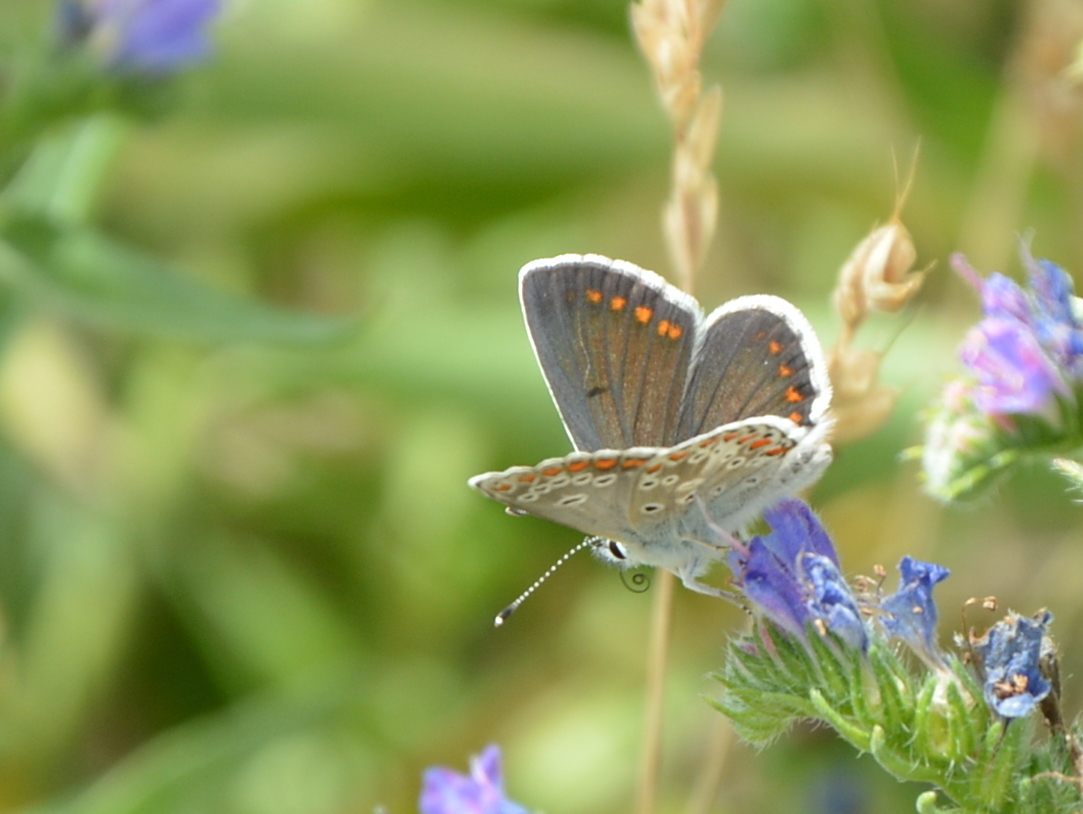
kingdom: Animalia
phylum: Arthropoda
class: Insecta
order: Lepidoptera
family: Lycaenidae
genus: Aricia
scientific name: Aricia agestis
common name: Brown argus
